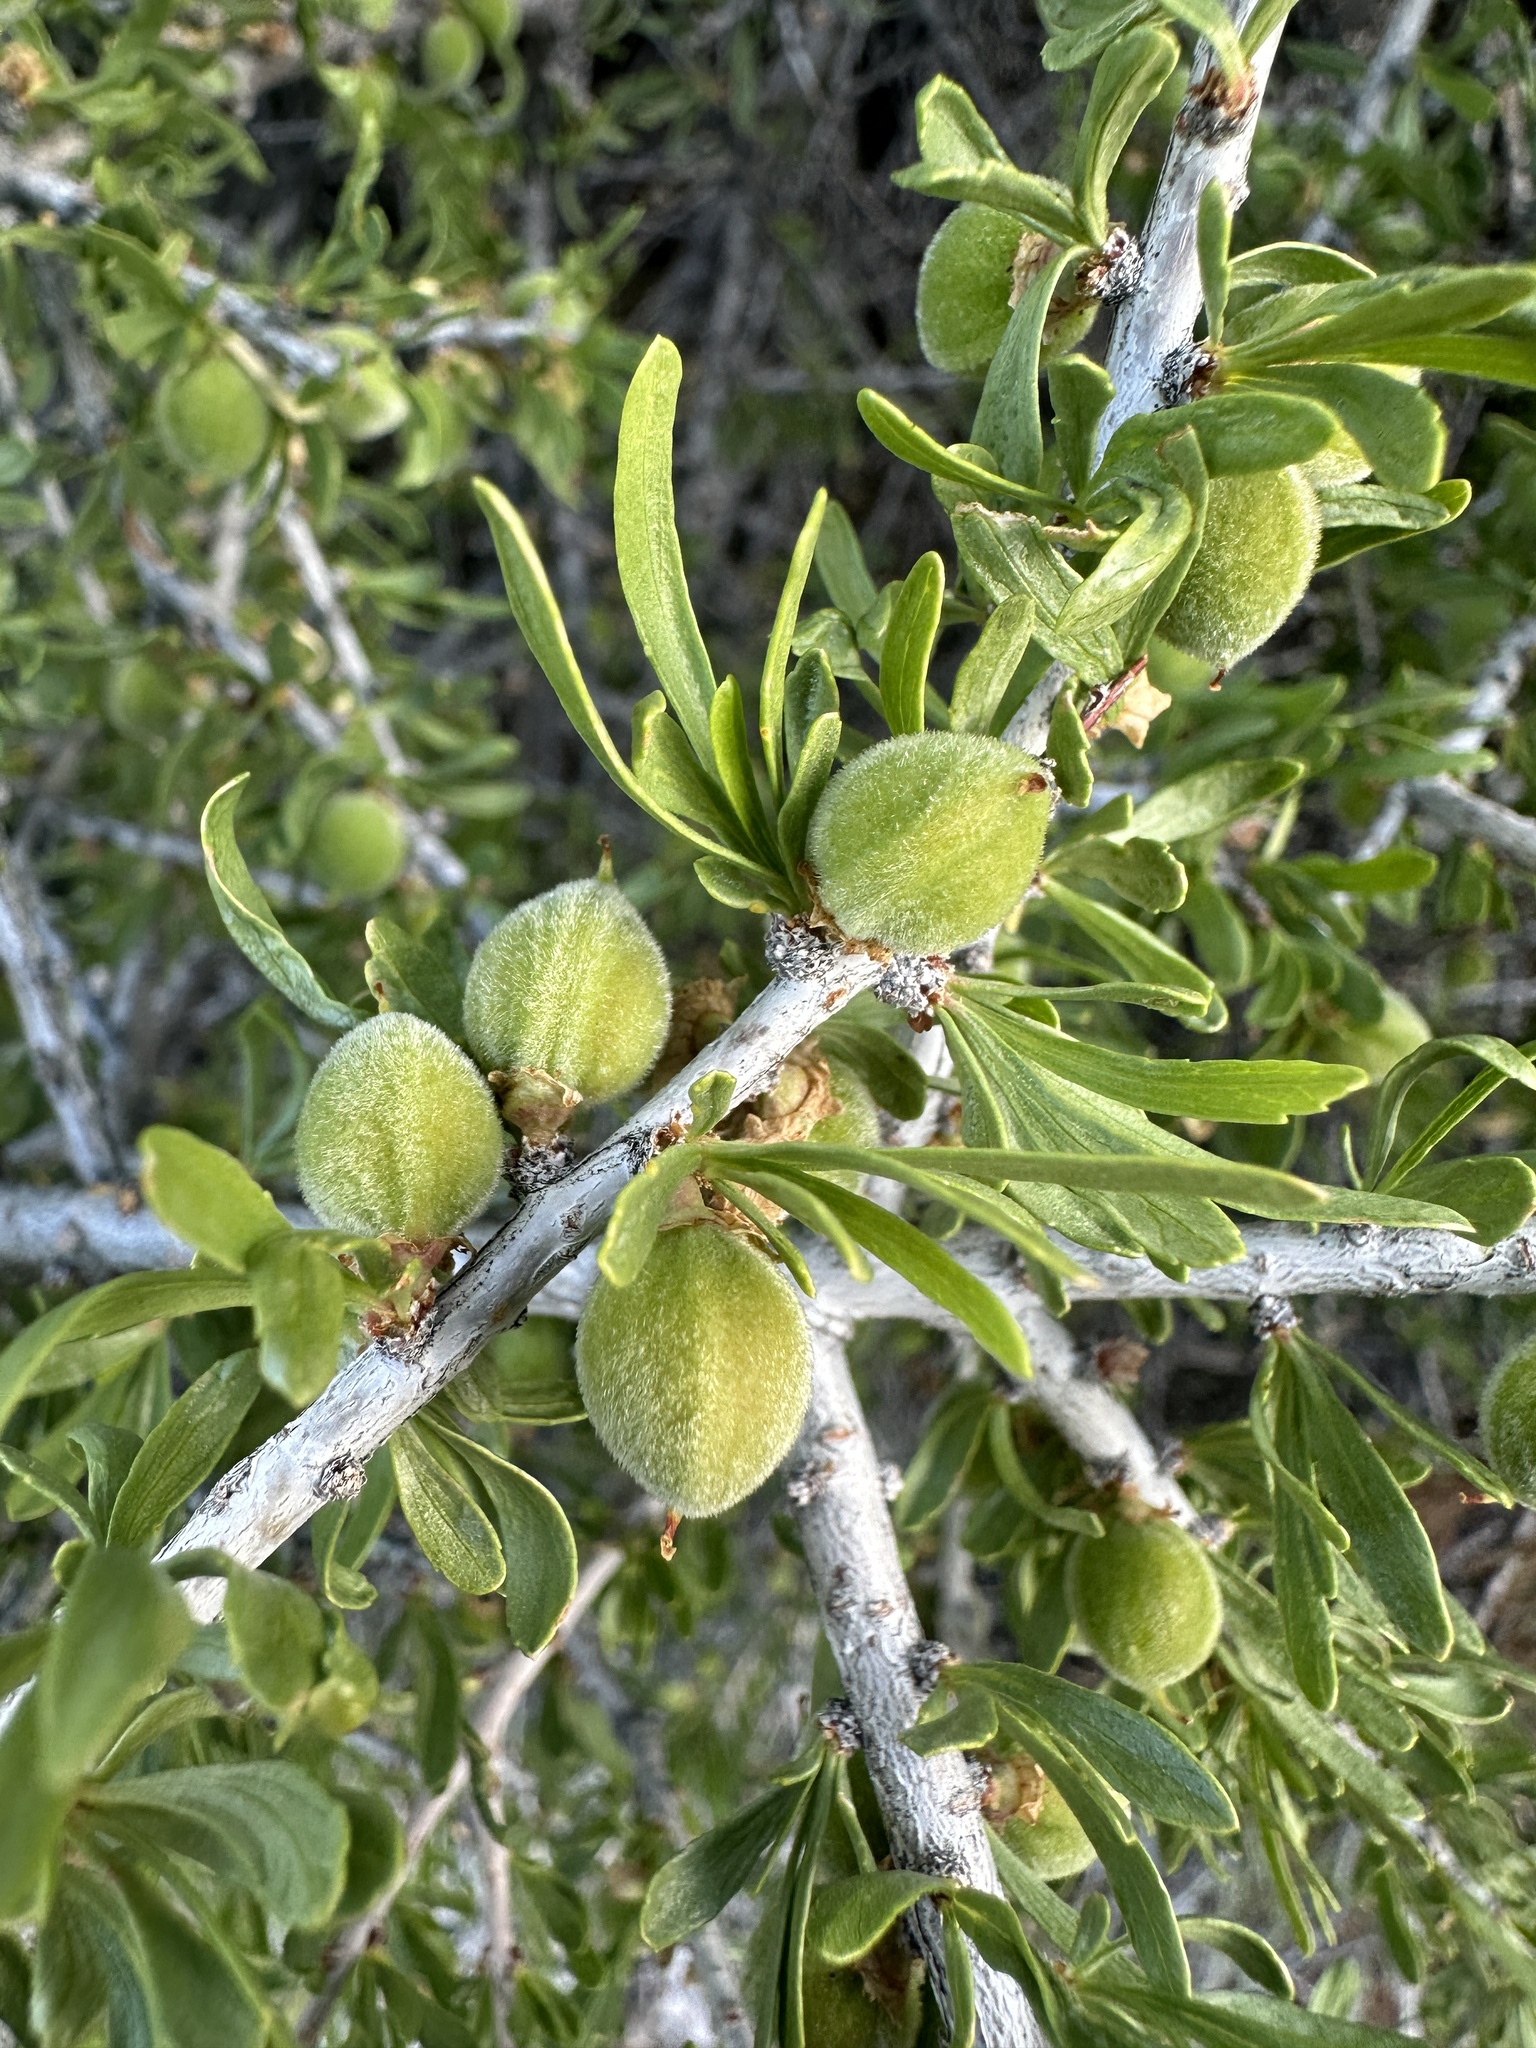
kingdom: Plantae
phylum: Tracheophyta
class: Magnoliopsida
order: Rosales
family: Rosaceae
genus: Prunus
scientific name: Prunus fasciculata
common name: Desert almond
